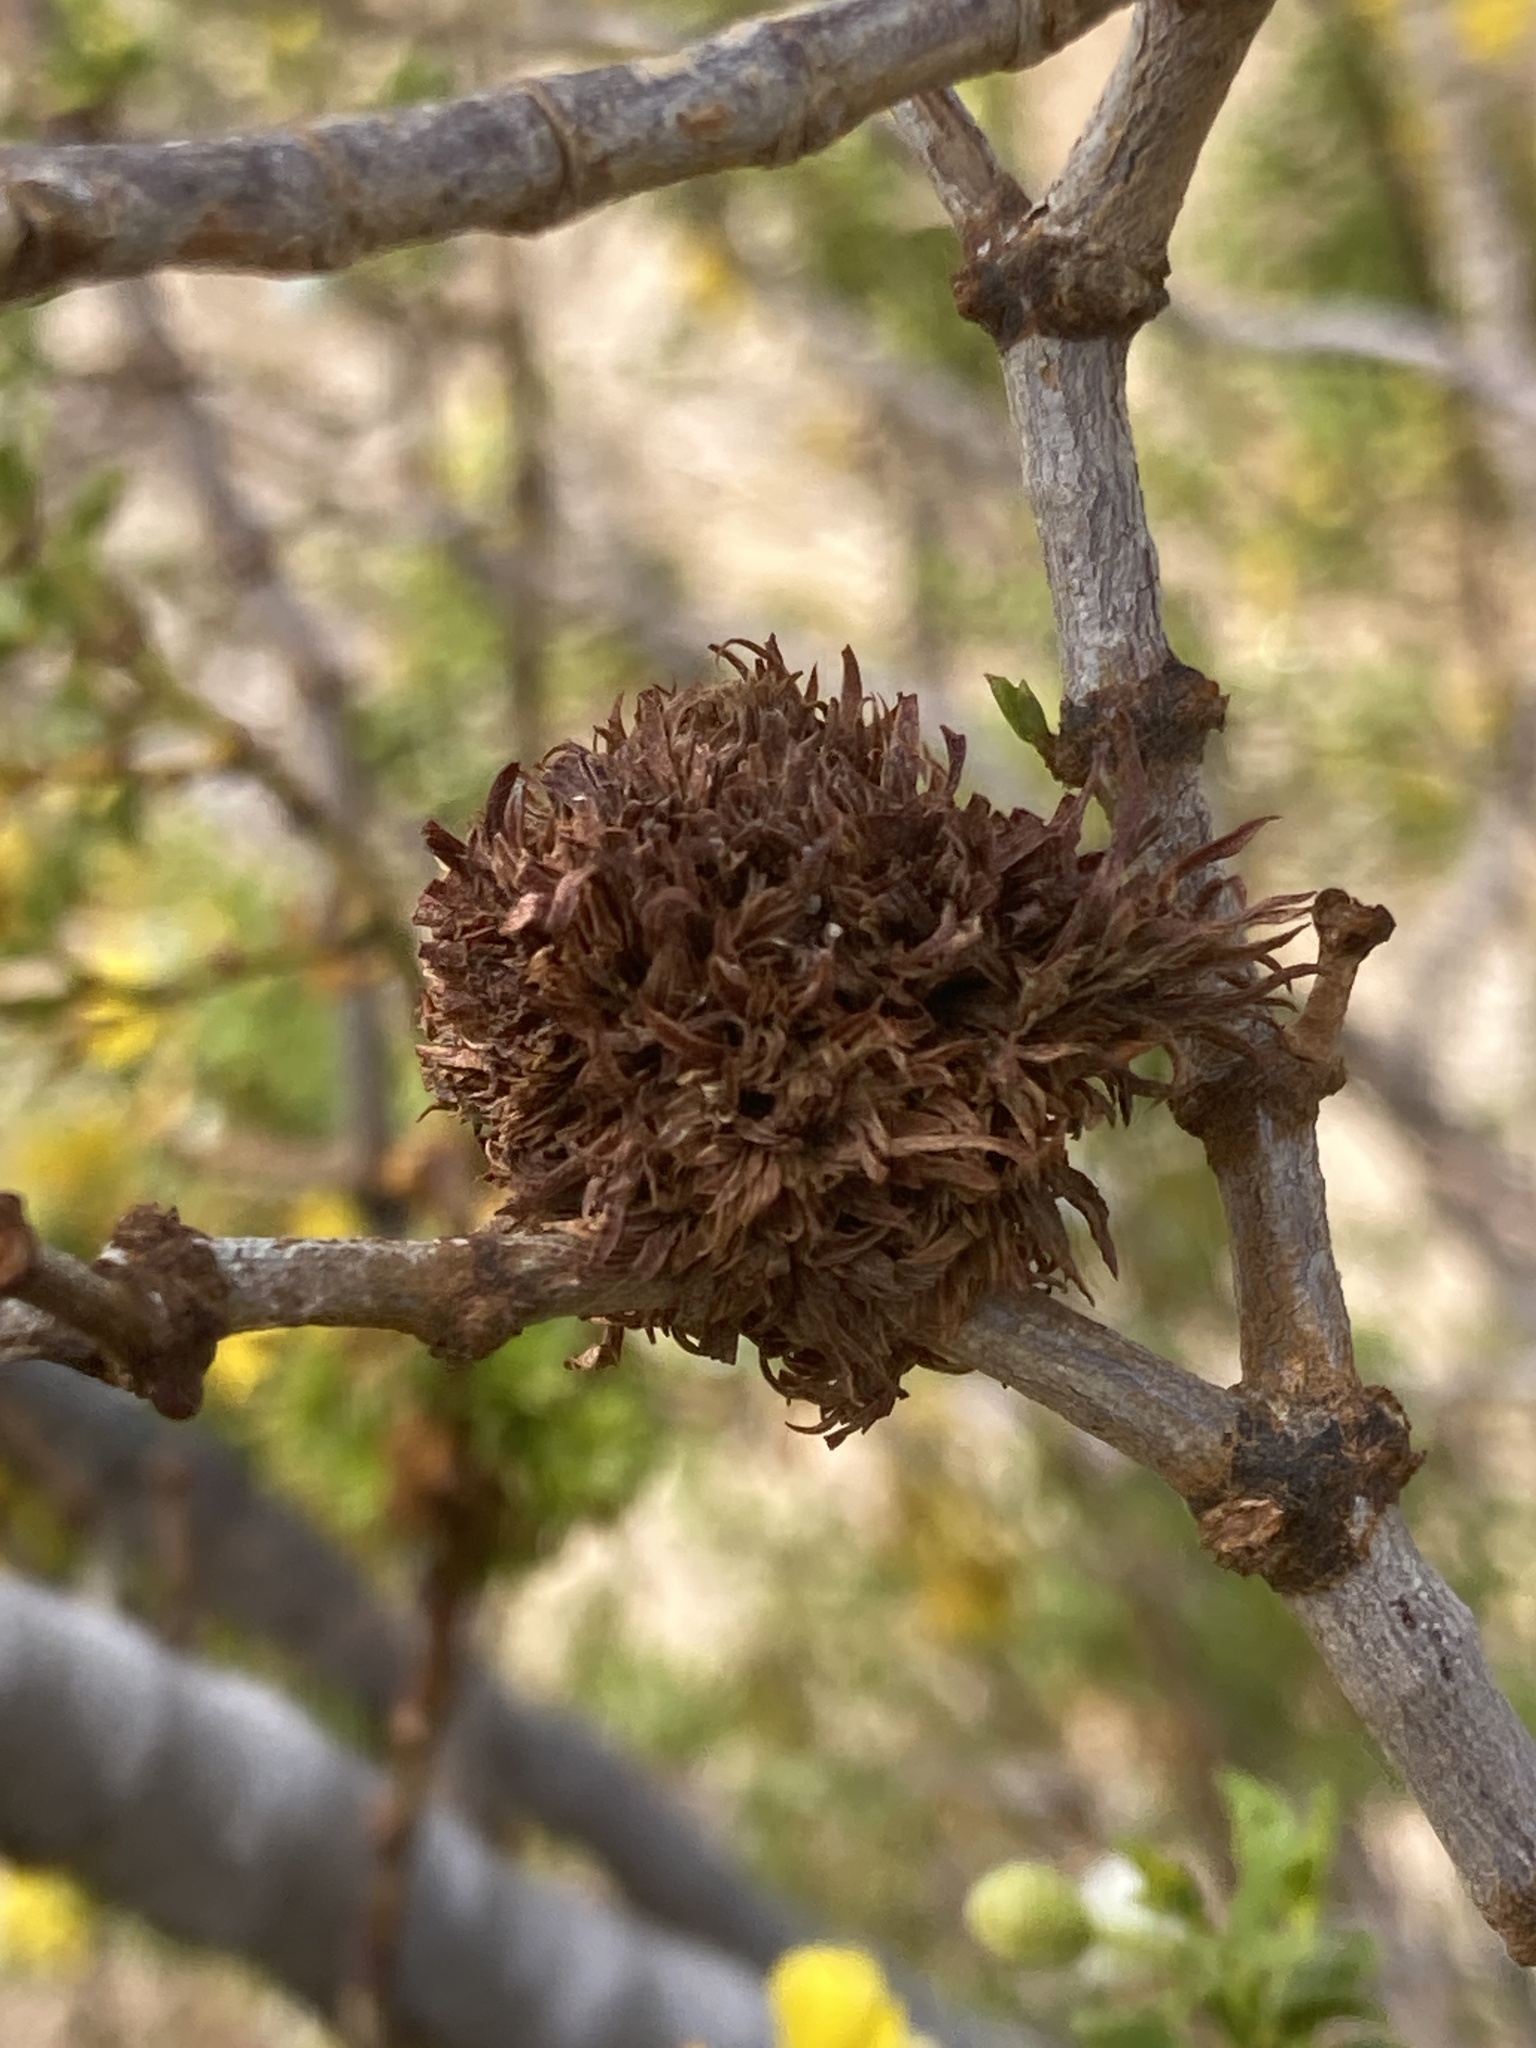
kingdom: Animalia
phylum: Arthropoda
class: Insecta
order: Diptera
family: Cecidomyiidae
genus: Asphondylia
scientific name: Asphondylia auripila
